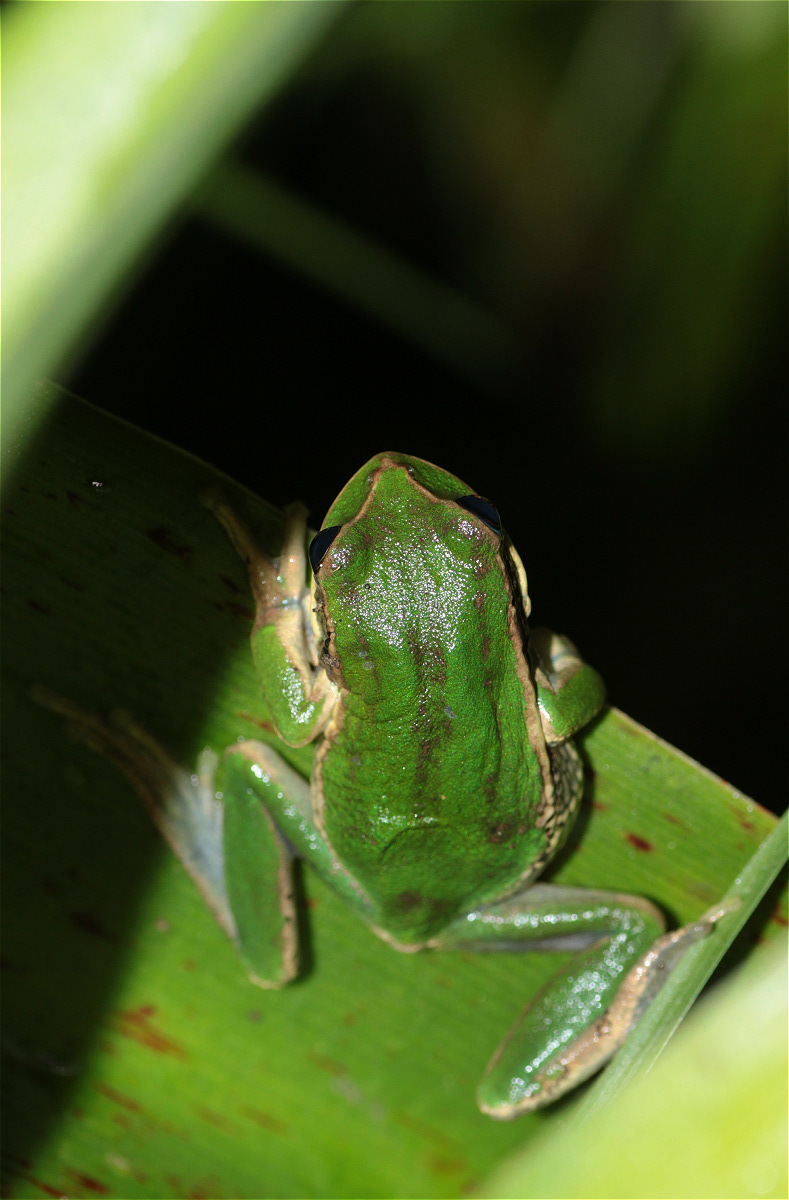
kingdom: Animalia
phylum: Chordata
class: Amphibia
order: Anura
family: Hemiphractidae
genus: Gastrotheca
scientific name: Gastrotheca cuencana
